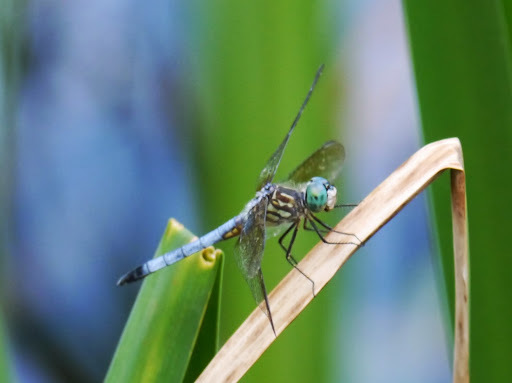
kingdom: Animalia
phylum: Arthropoda
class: Insecta
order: Odonata
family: Libellulidae
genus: Pachydiplax
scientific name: Pachydiplax longipennis
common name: Blue dasher
